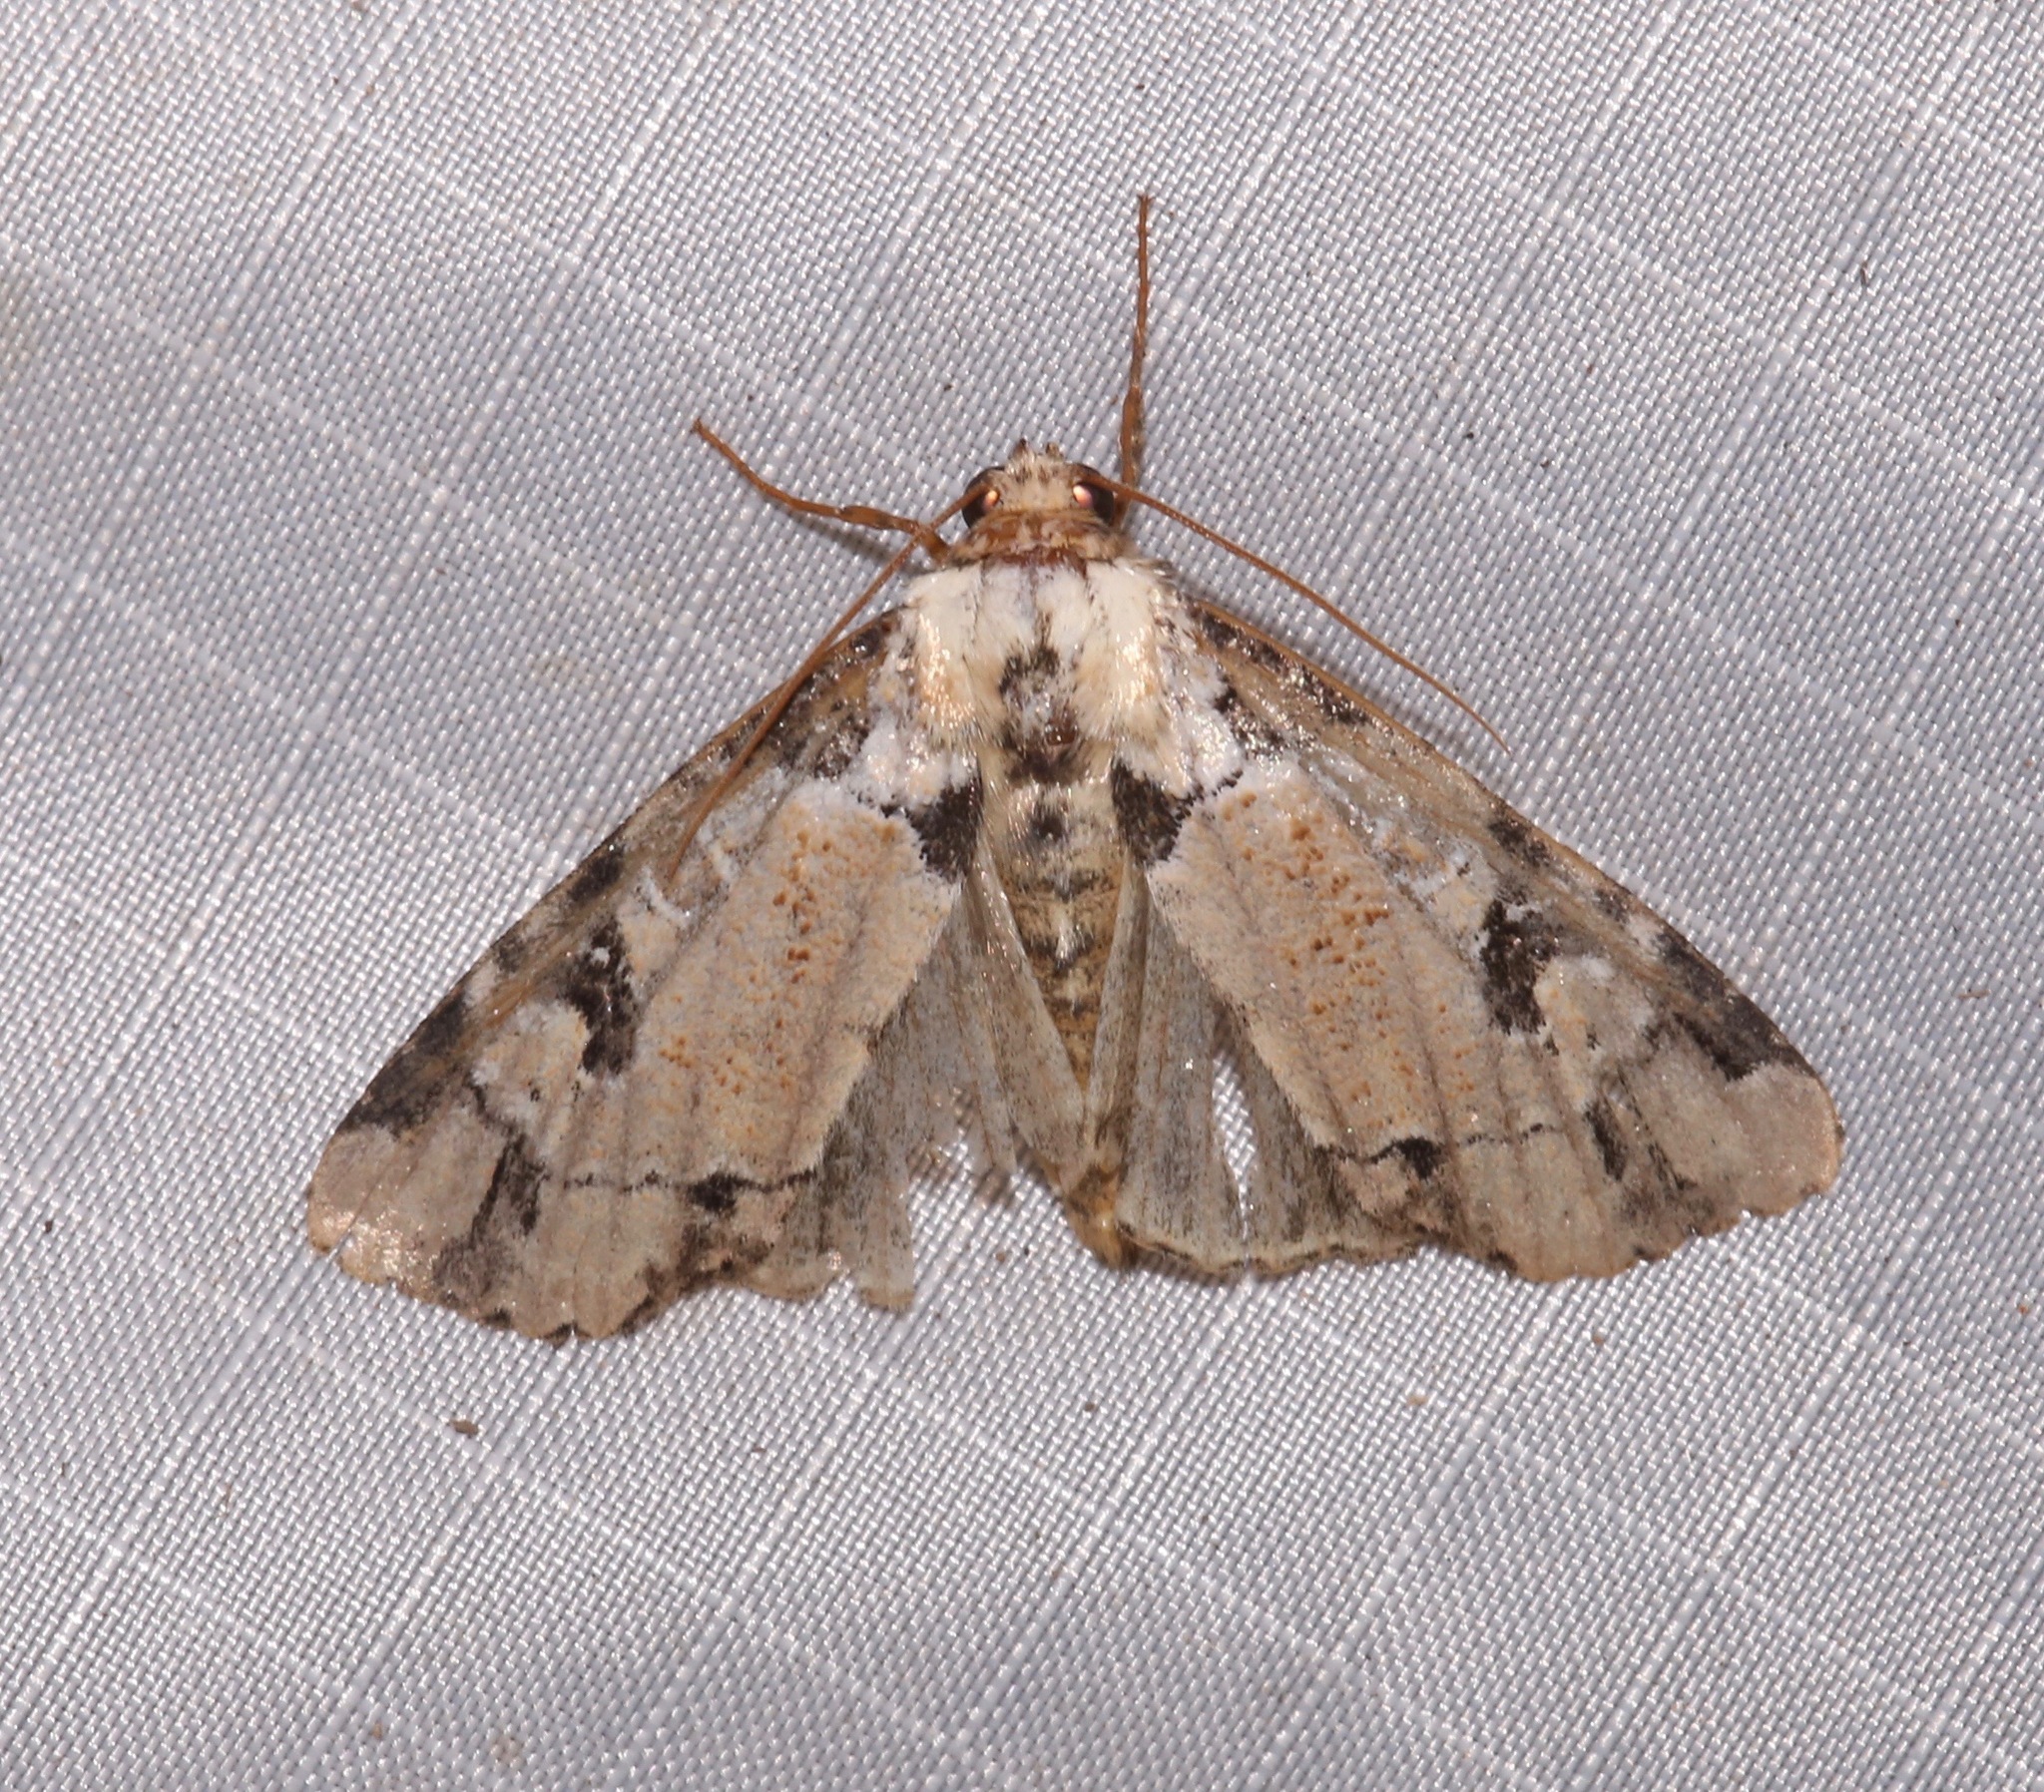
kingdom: Animalia
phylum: Arthropoda
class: Insecta
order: Lepidoptera
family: Noctuidae
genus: Stibaera
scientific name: Stibaera thyatiroides
